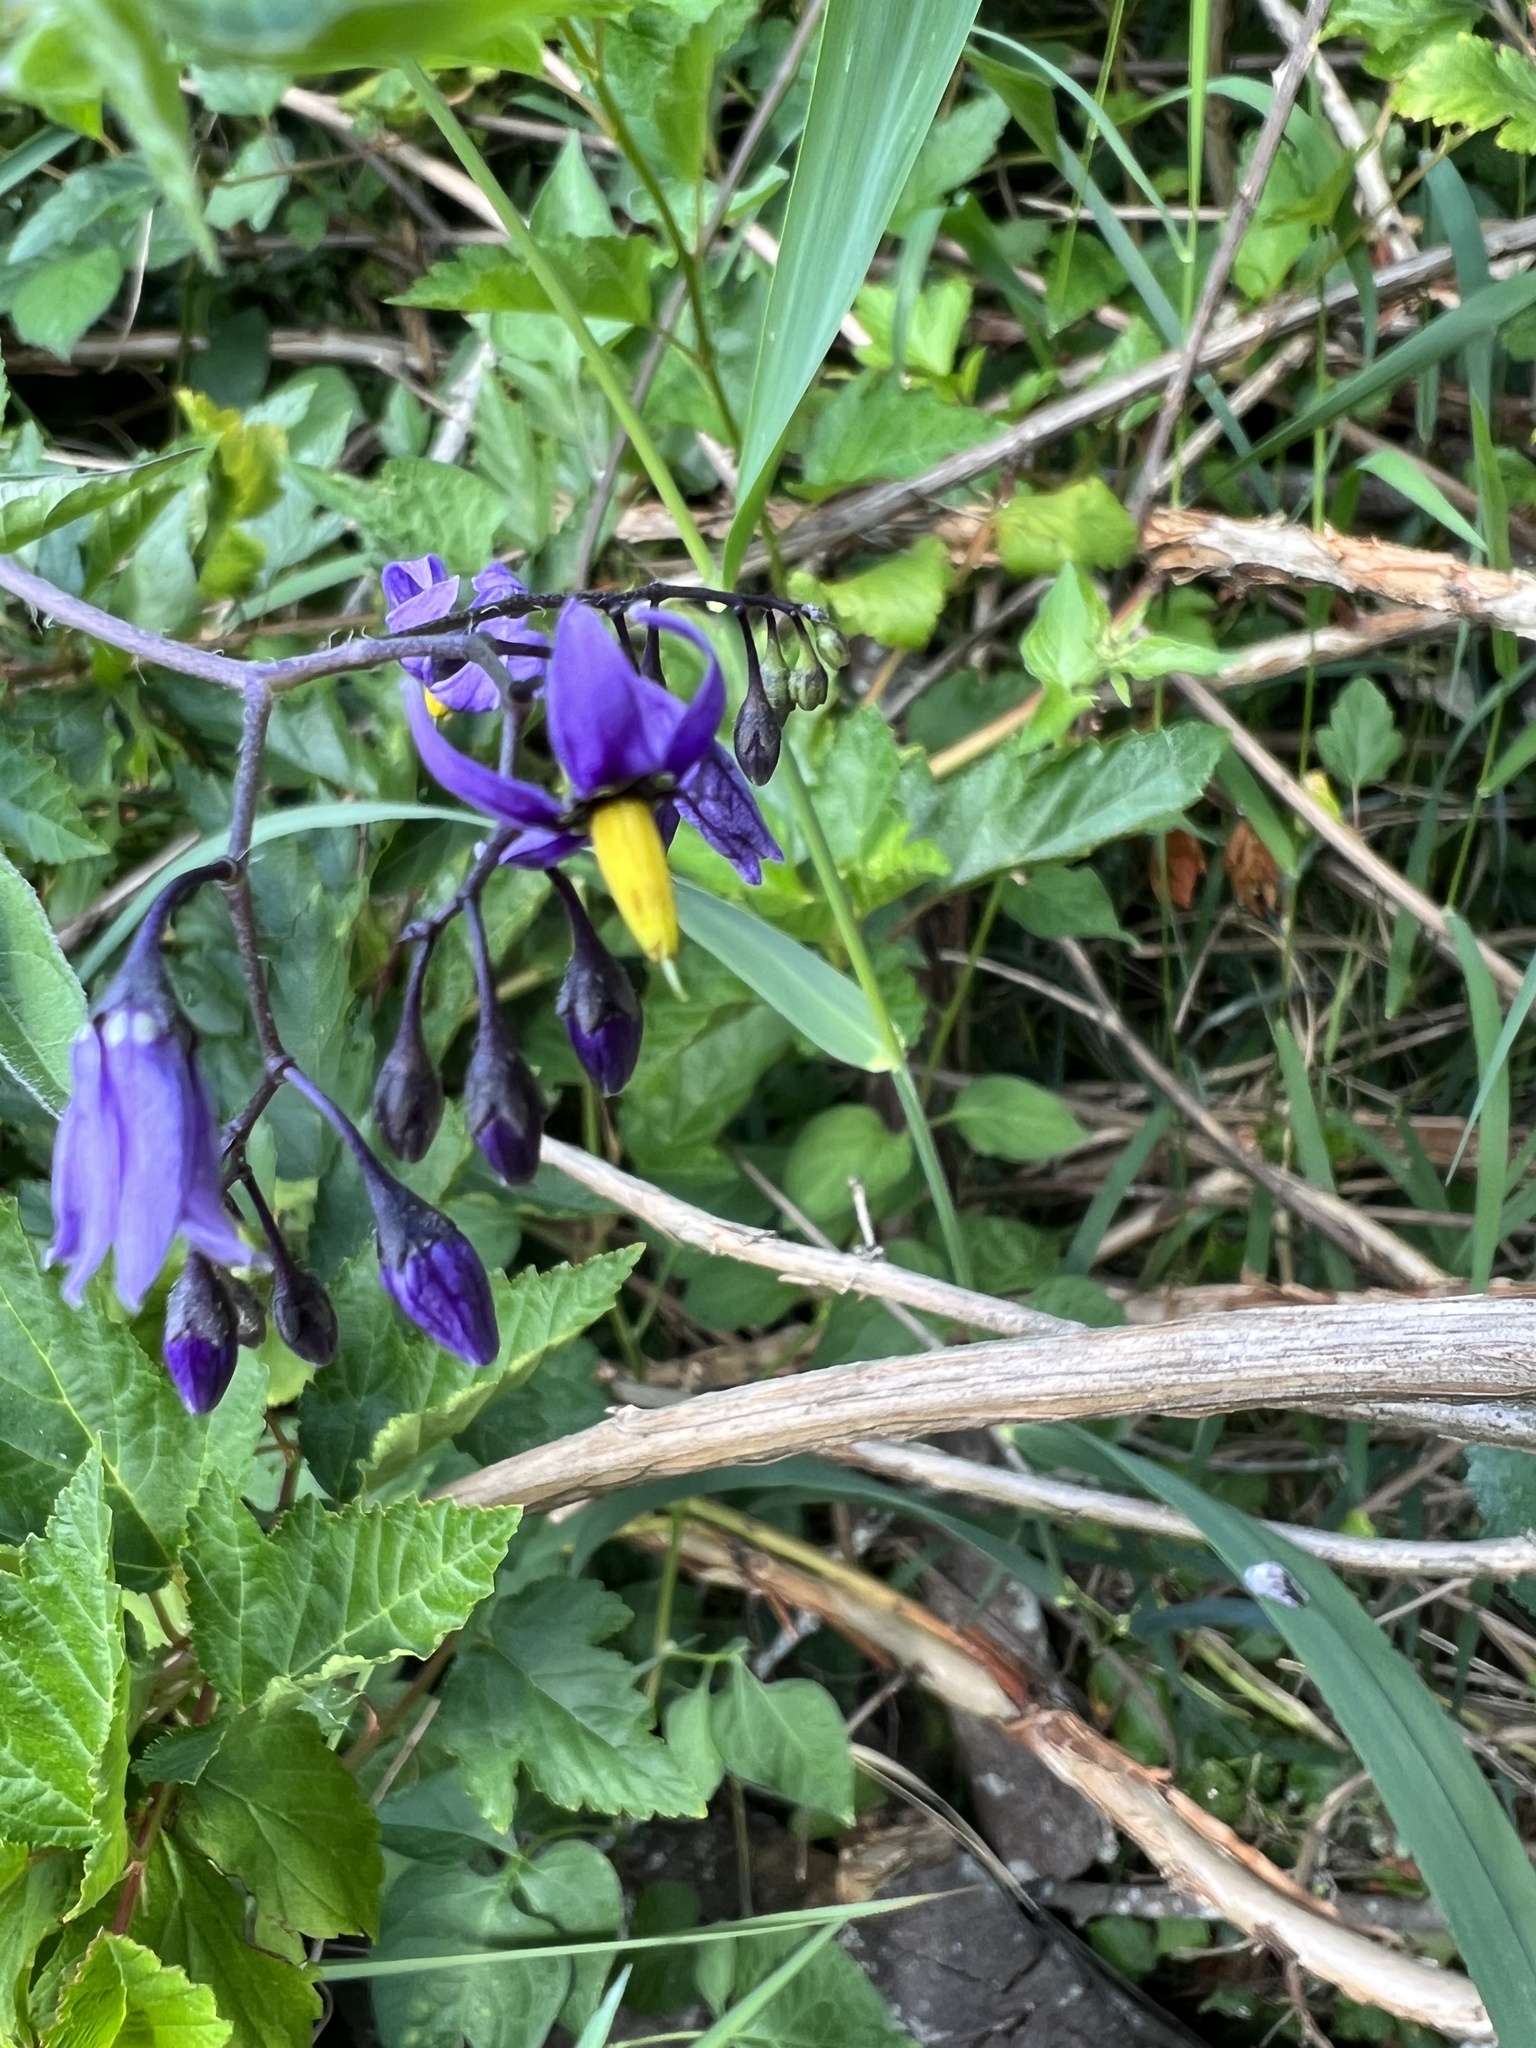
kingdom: Plantae
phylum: Tracheophyta
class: Magnoliopsida
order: Solanales
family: Solanaceae
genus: Solanum
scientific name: Solanum dulcamara
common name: Climbing nightshade
